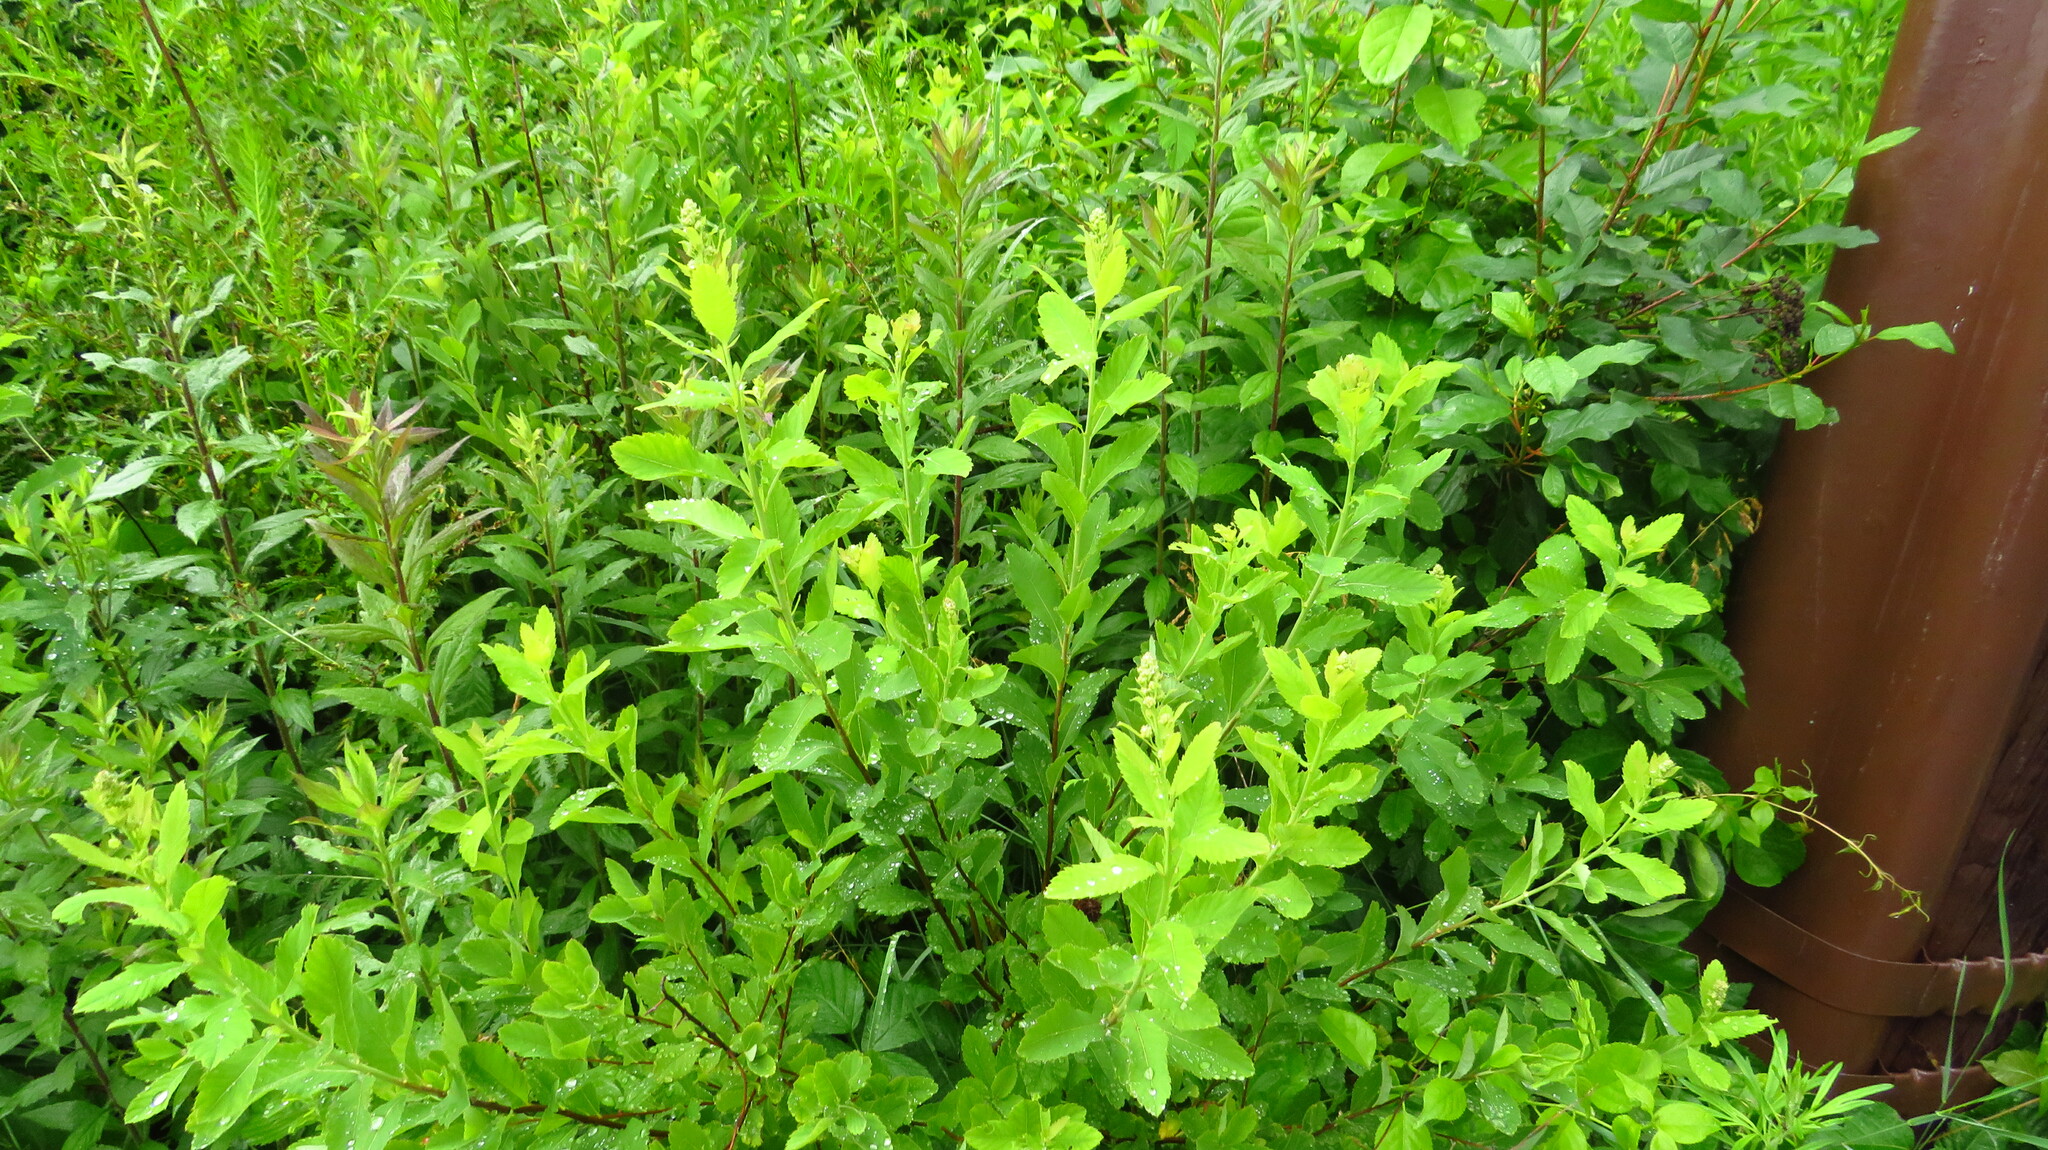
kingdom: Plantae
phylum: Tracheophyta
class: Magnoliopsida
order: Rosales
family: Rosaceae
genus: Spiraea
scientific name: Spiraea alba
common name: Pale bridewort
